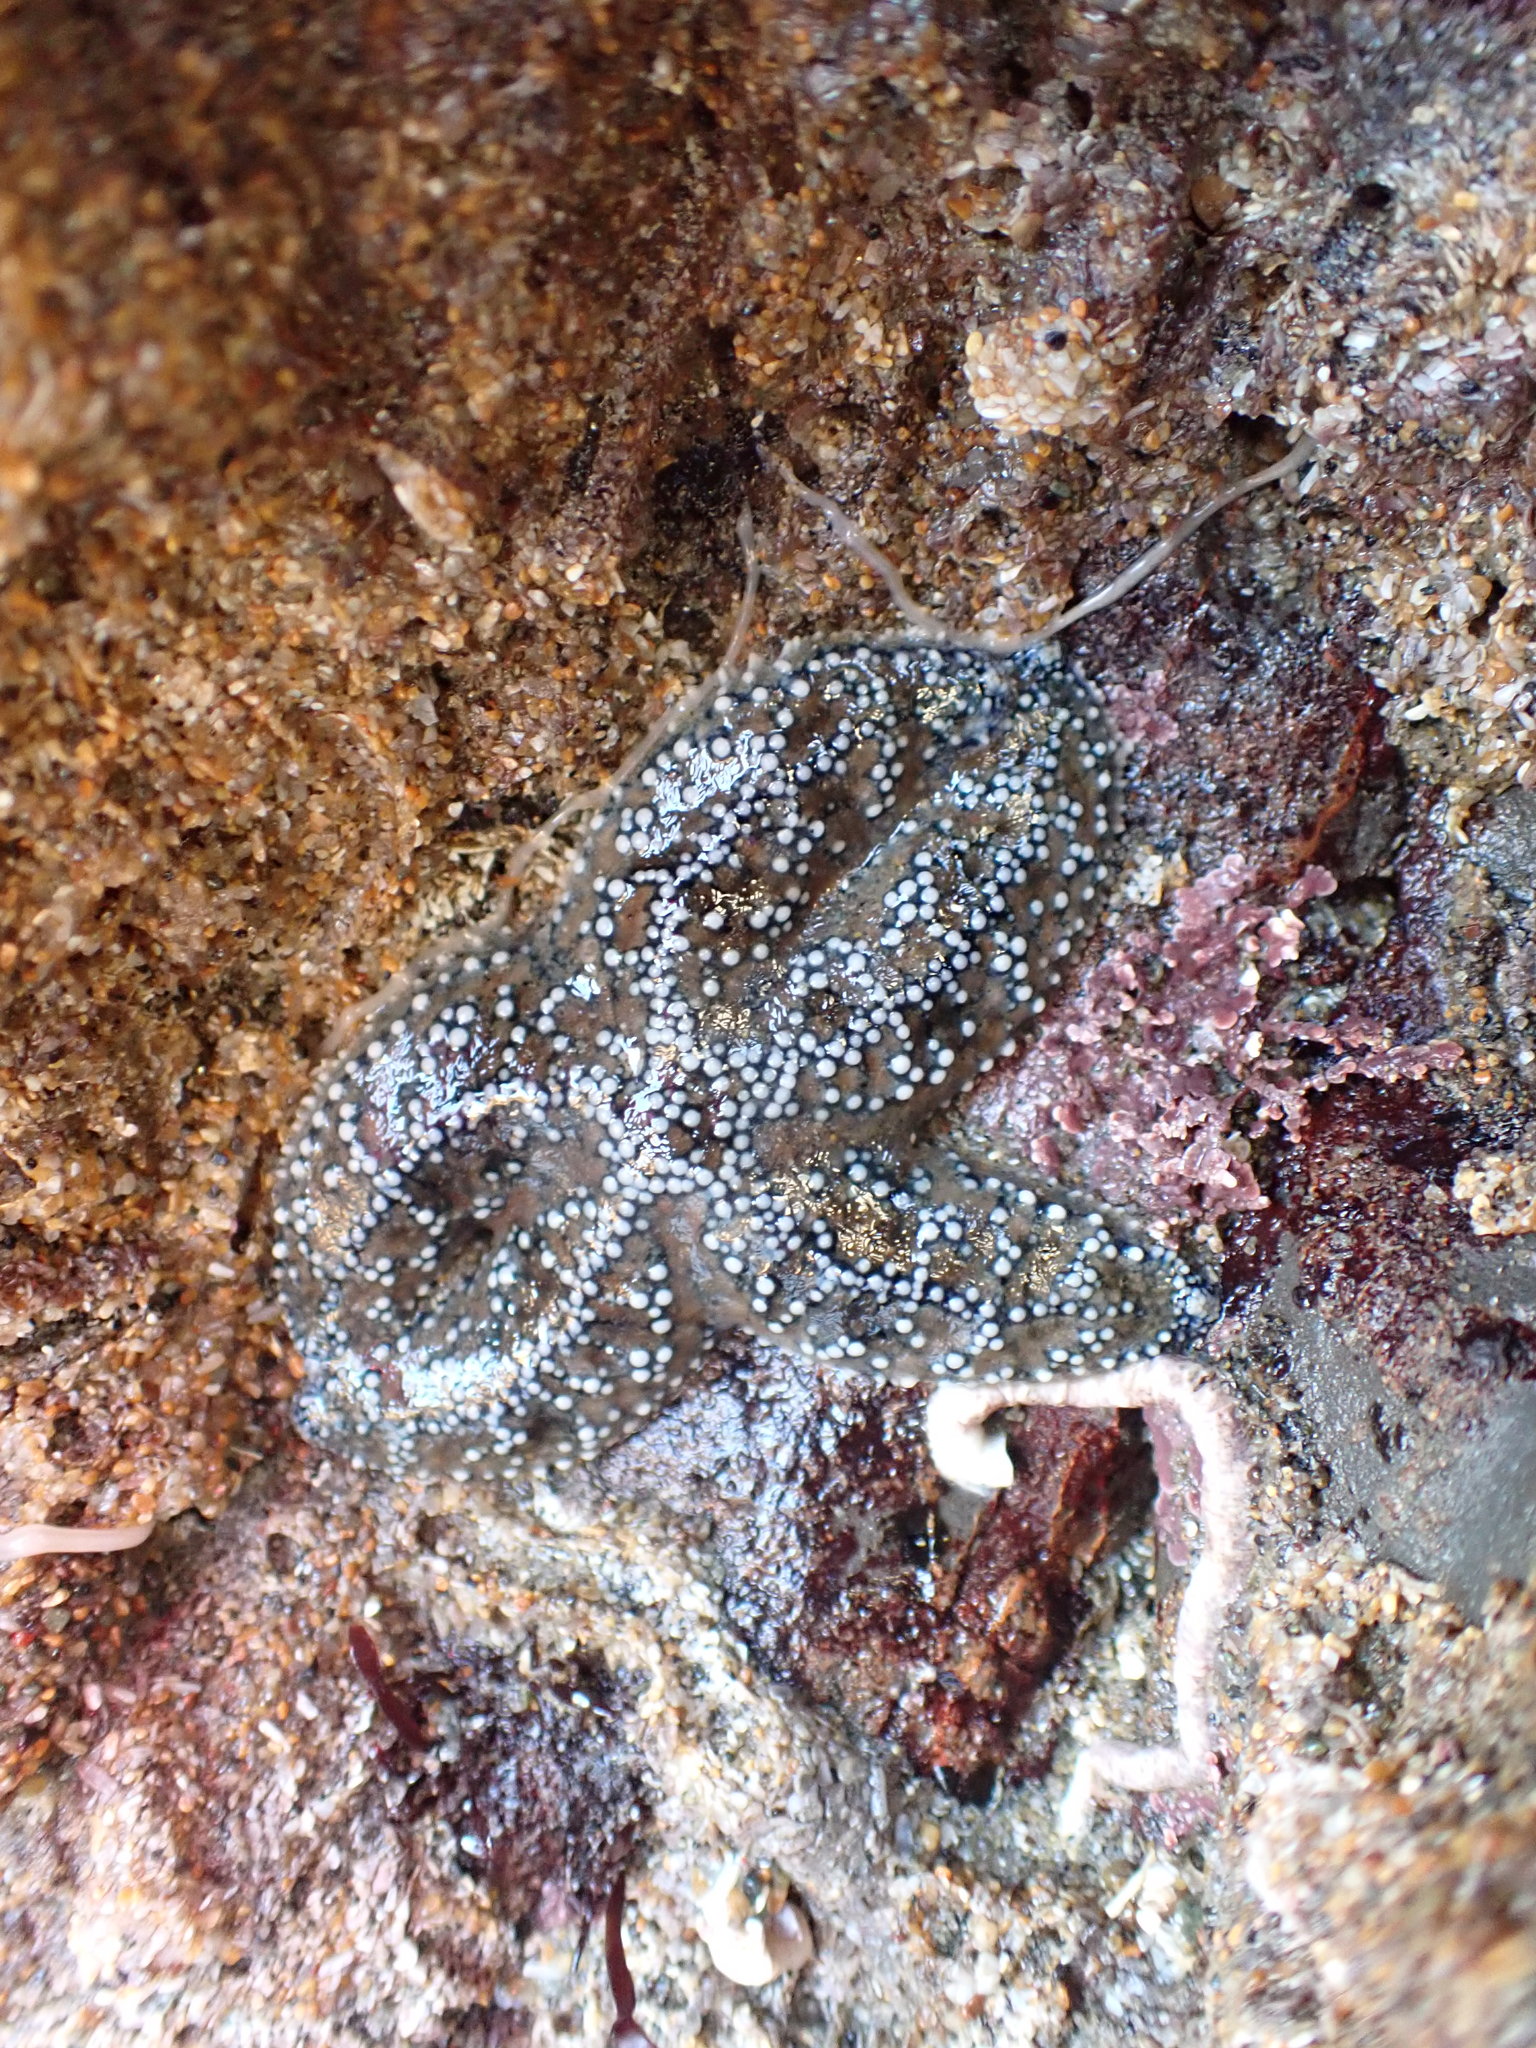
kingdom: Animalia
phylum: Echinodermata
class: Asteroidea
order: Forcipulatida
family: Asteriidae
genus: Pisaster
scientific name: Pisaster ochraceus
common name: Ochre stars
